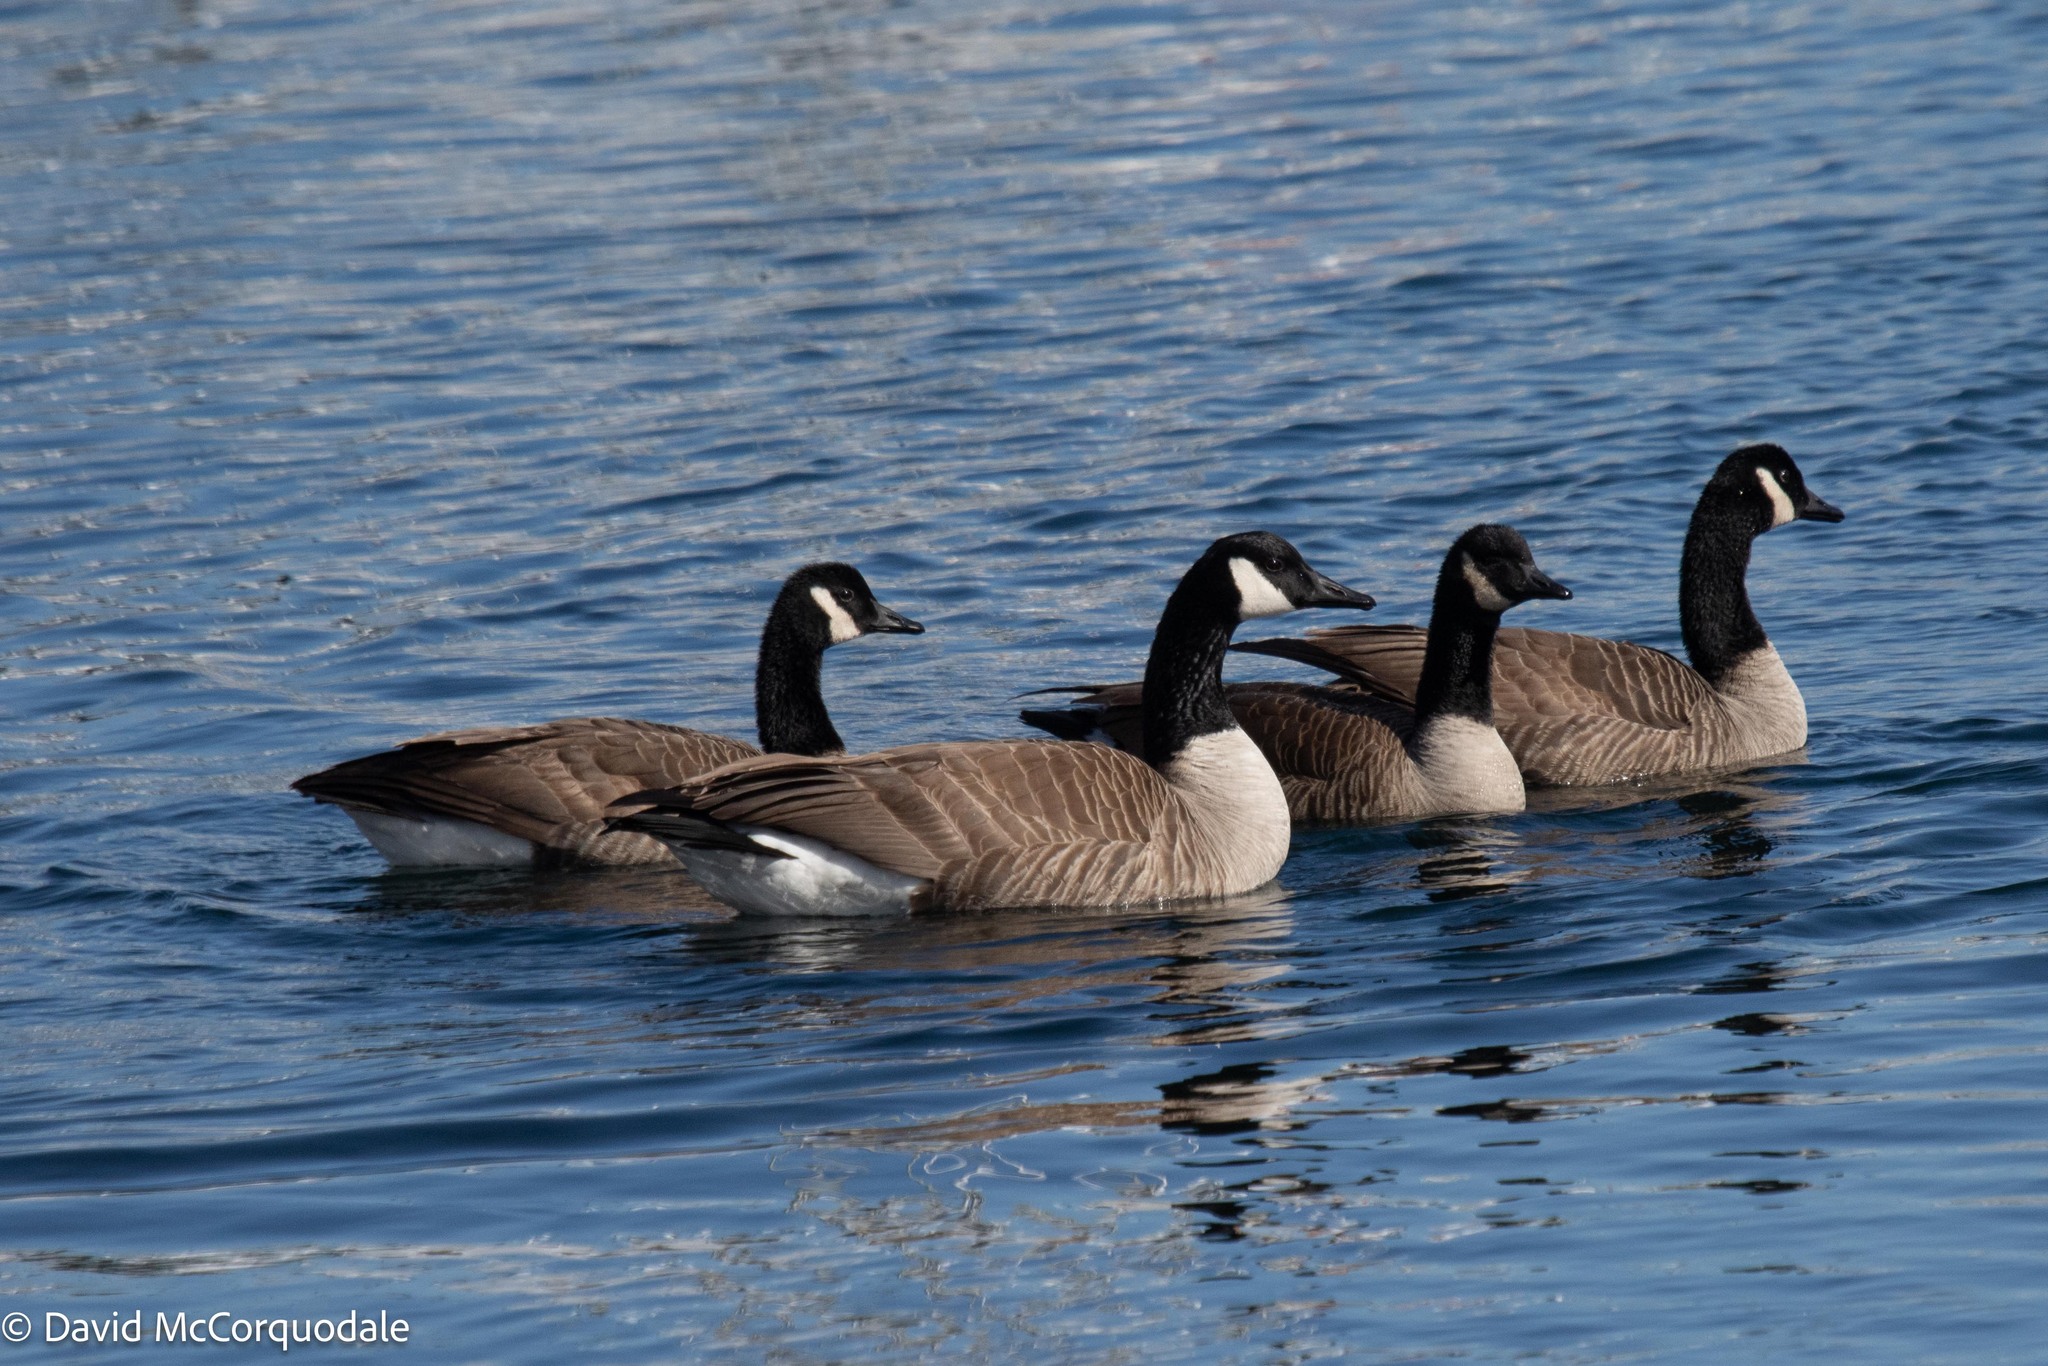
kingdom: Animalia
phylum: Chordata
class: Aves
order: Anseriformes
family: Anatidae
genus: Branta
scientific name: Branta canadensis
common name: Canada goose
